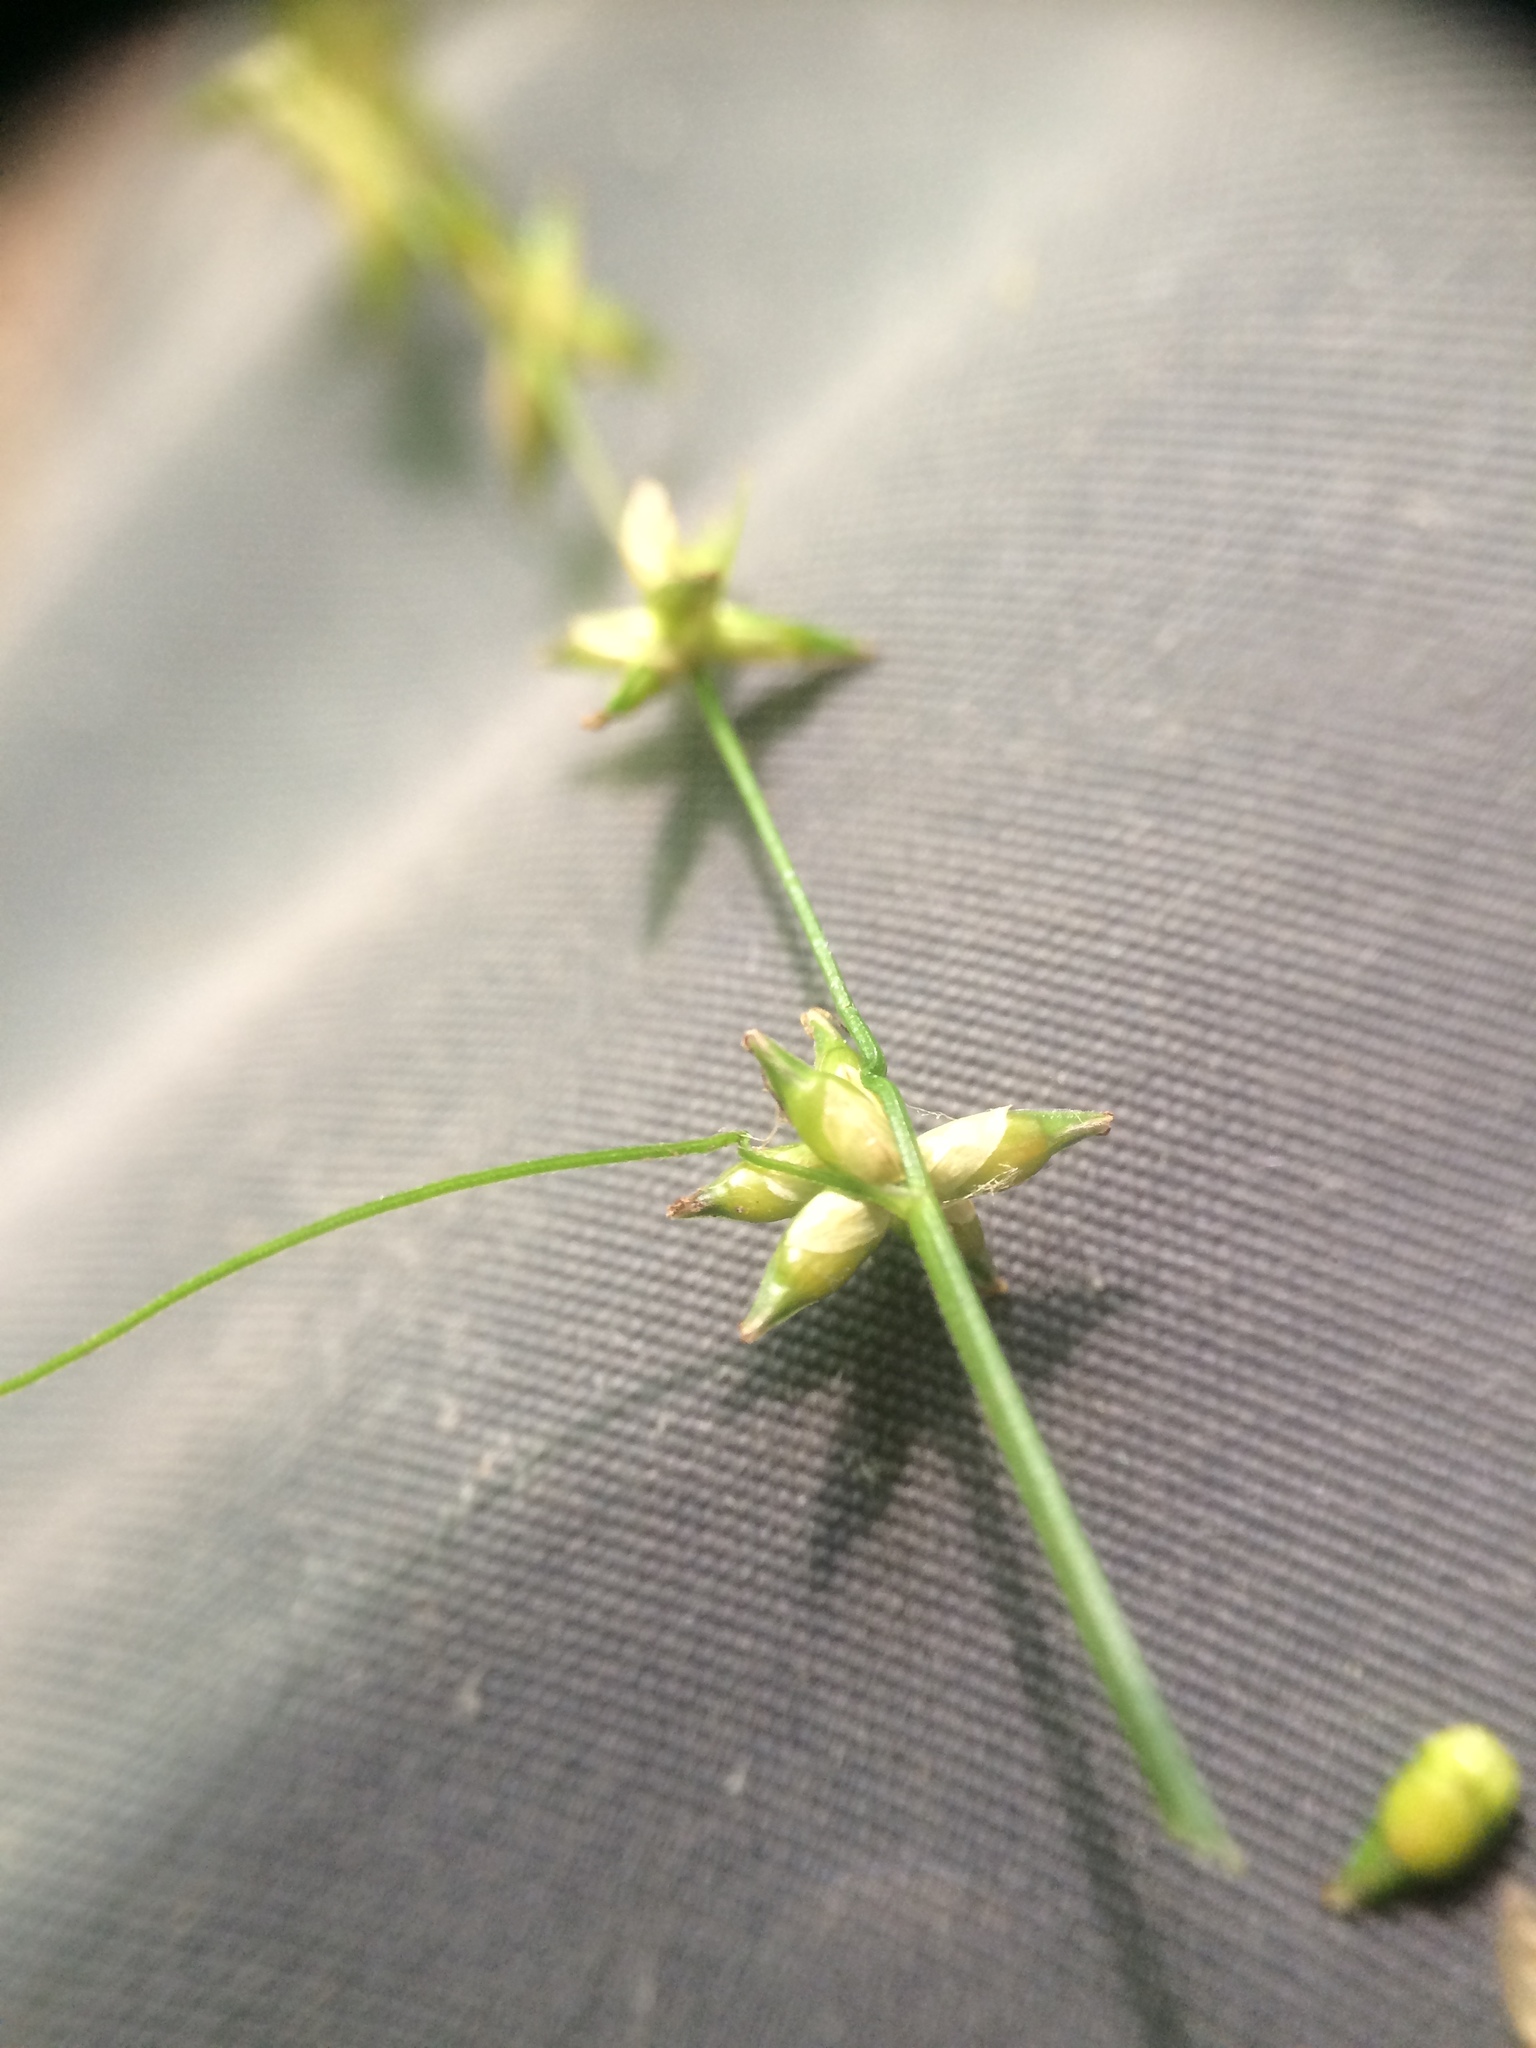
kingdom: Plantae
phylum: Tracheophyta
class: Liliopsida
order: Poales
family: Cyperaceae
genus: Carex
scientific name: Carex radiata
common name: Eastern star sedge
